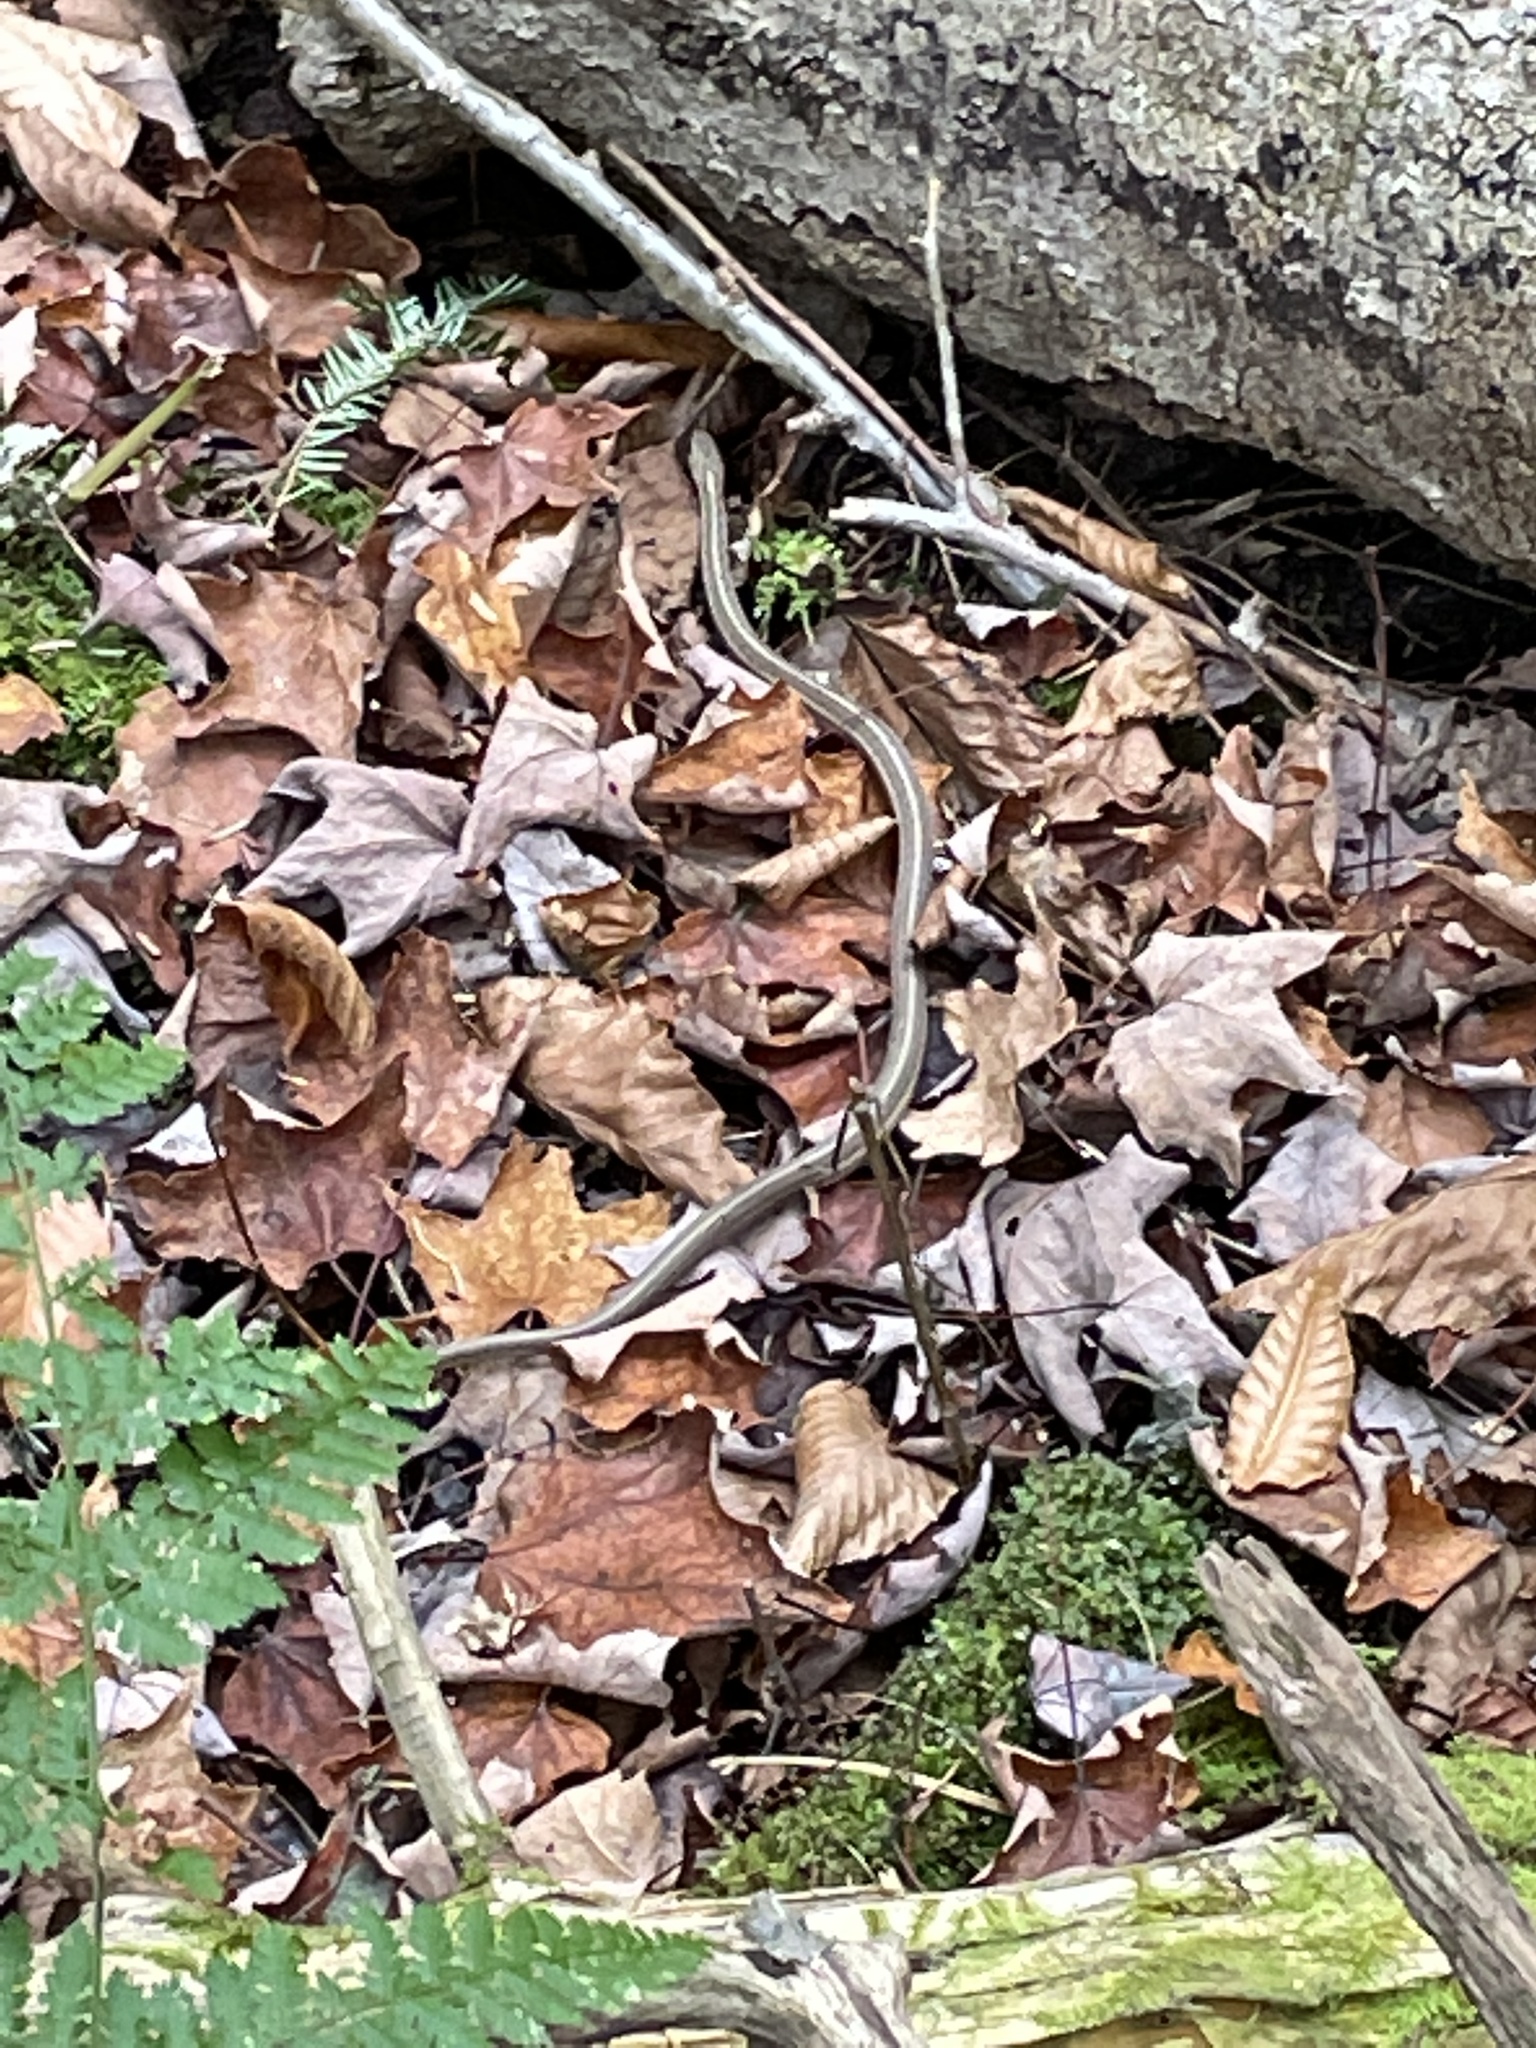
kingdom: Animalia
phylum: Chordata
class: Squamata
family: Colubridae
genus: Thamnophis
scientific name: Thamnophis sirtalis
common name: Common garter snake
